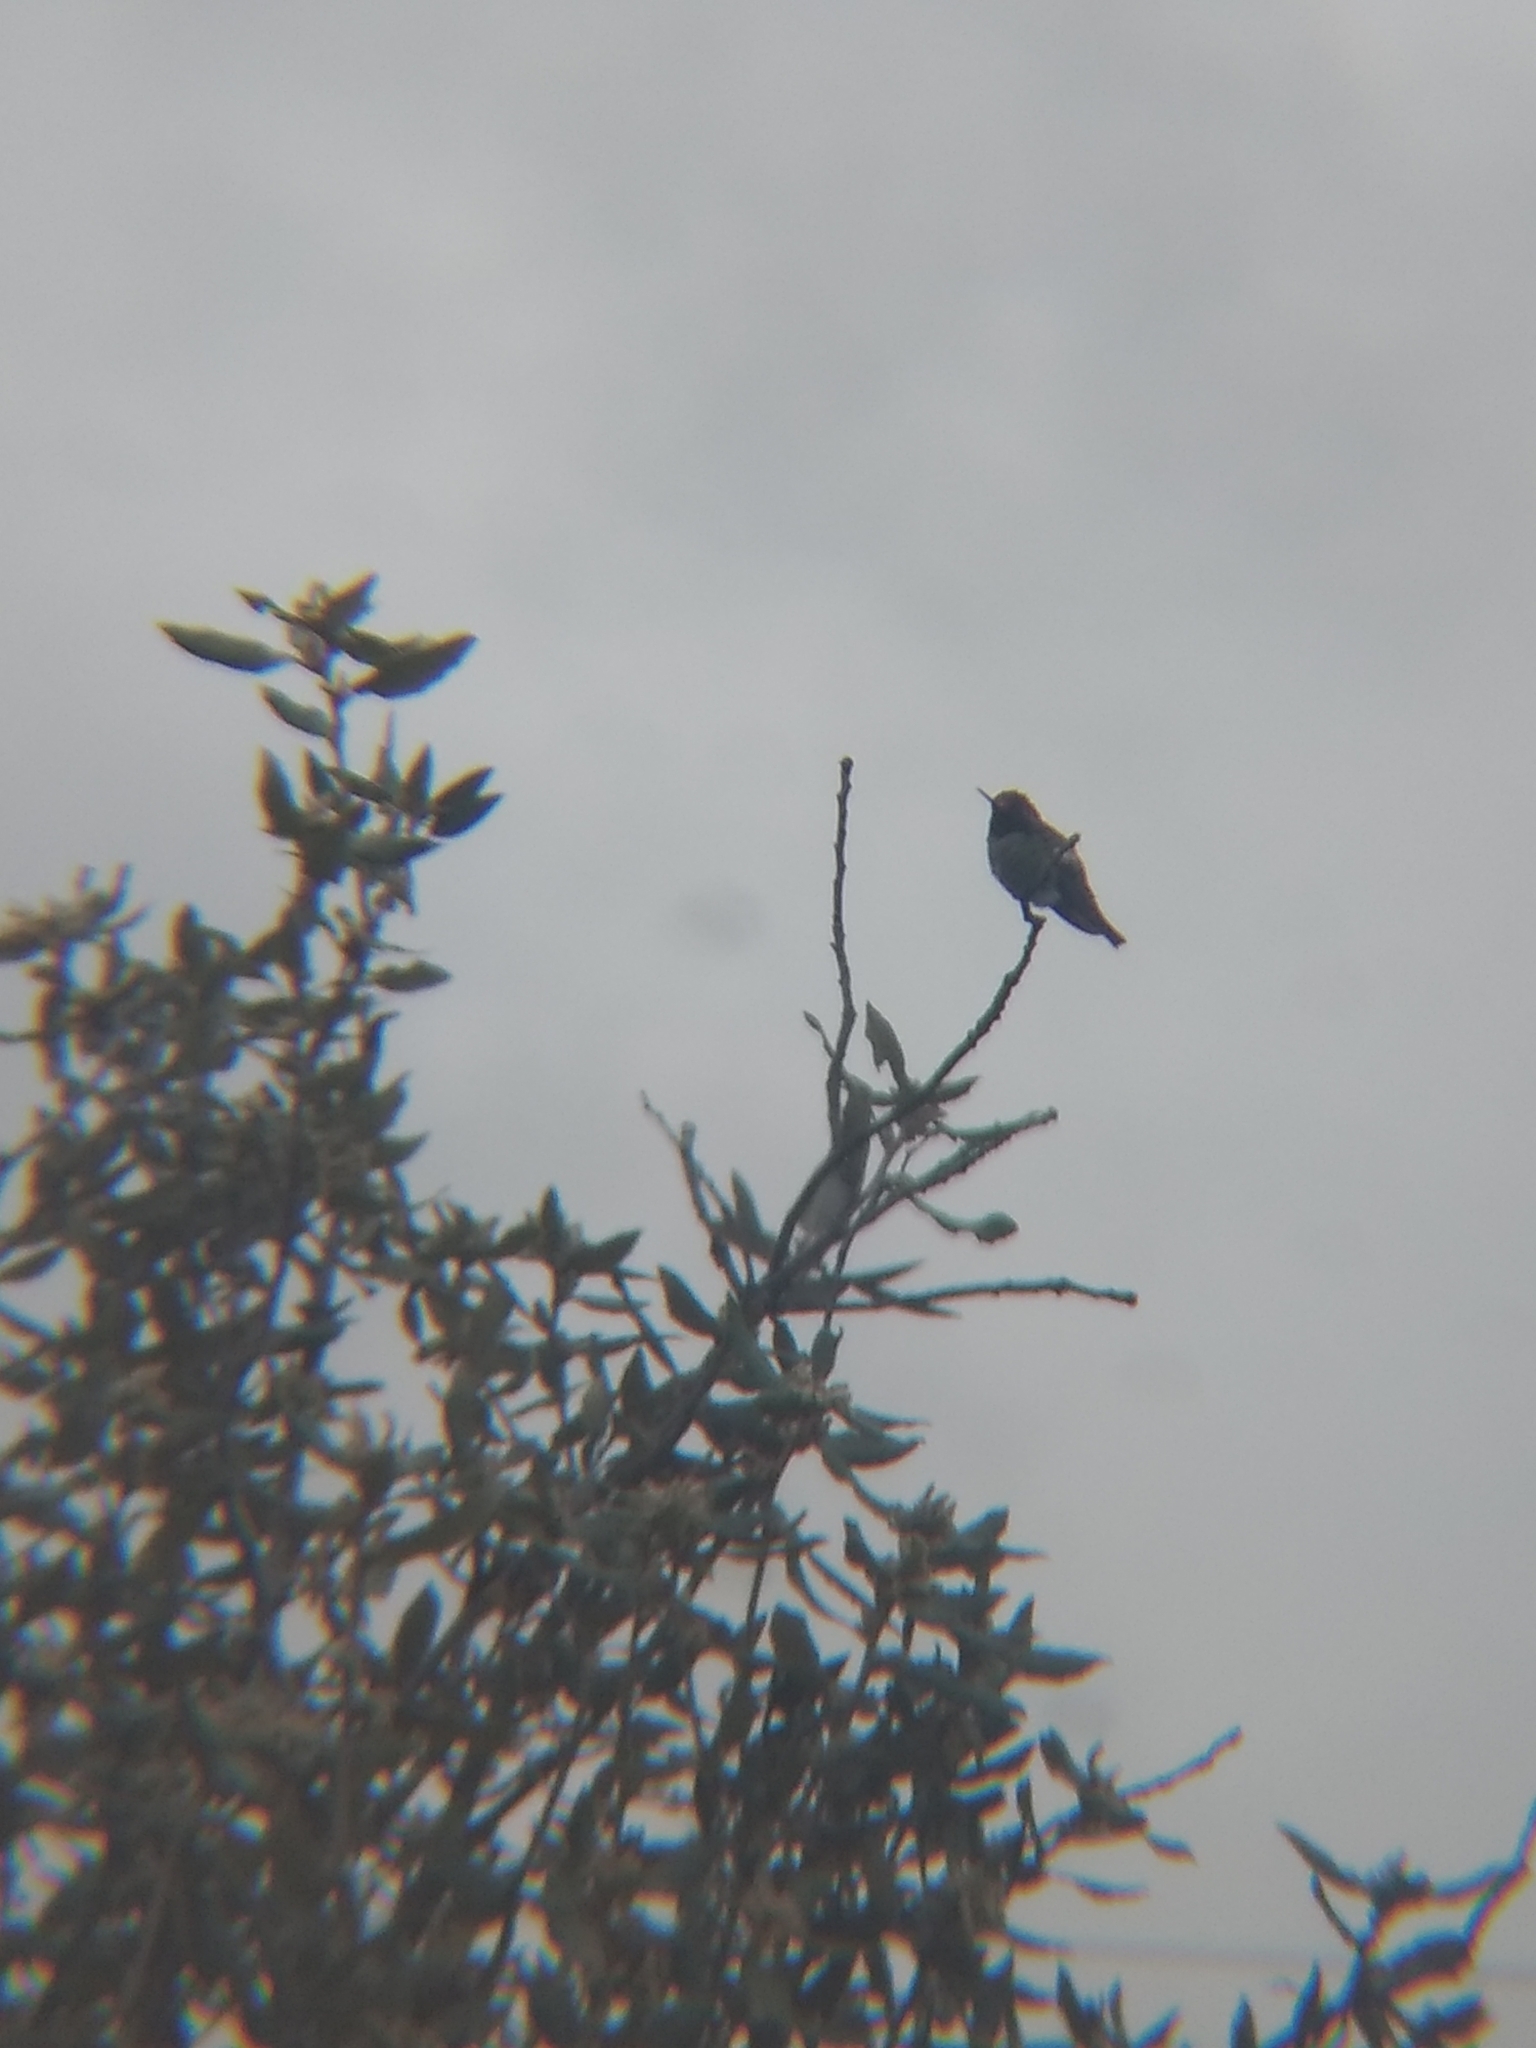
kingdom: Animalia
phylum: Chordata
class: Aves
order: Apodiformes
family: Trochilidae
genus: Calypte
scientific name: Calypte anna
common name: Anna's hummingbird
